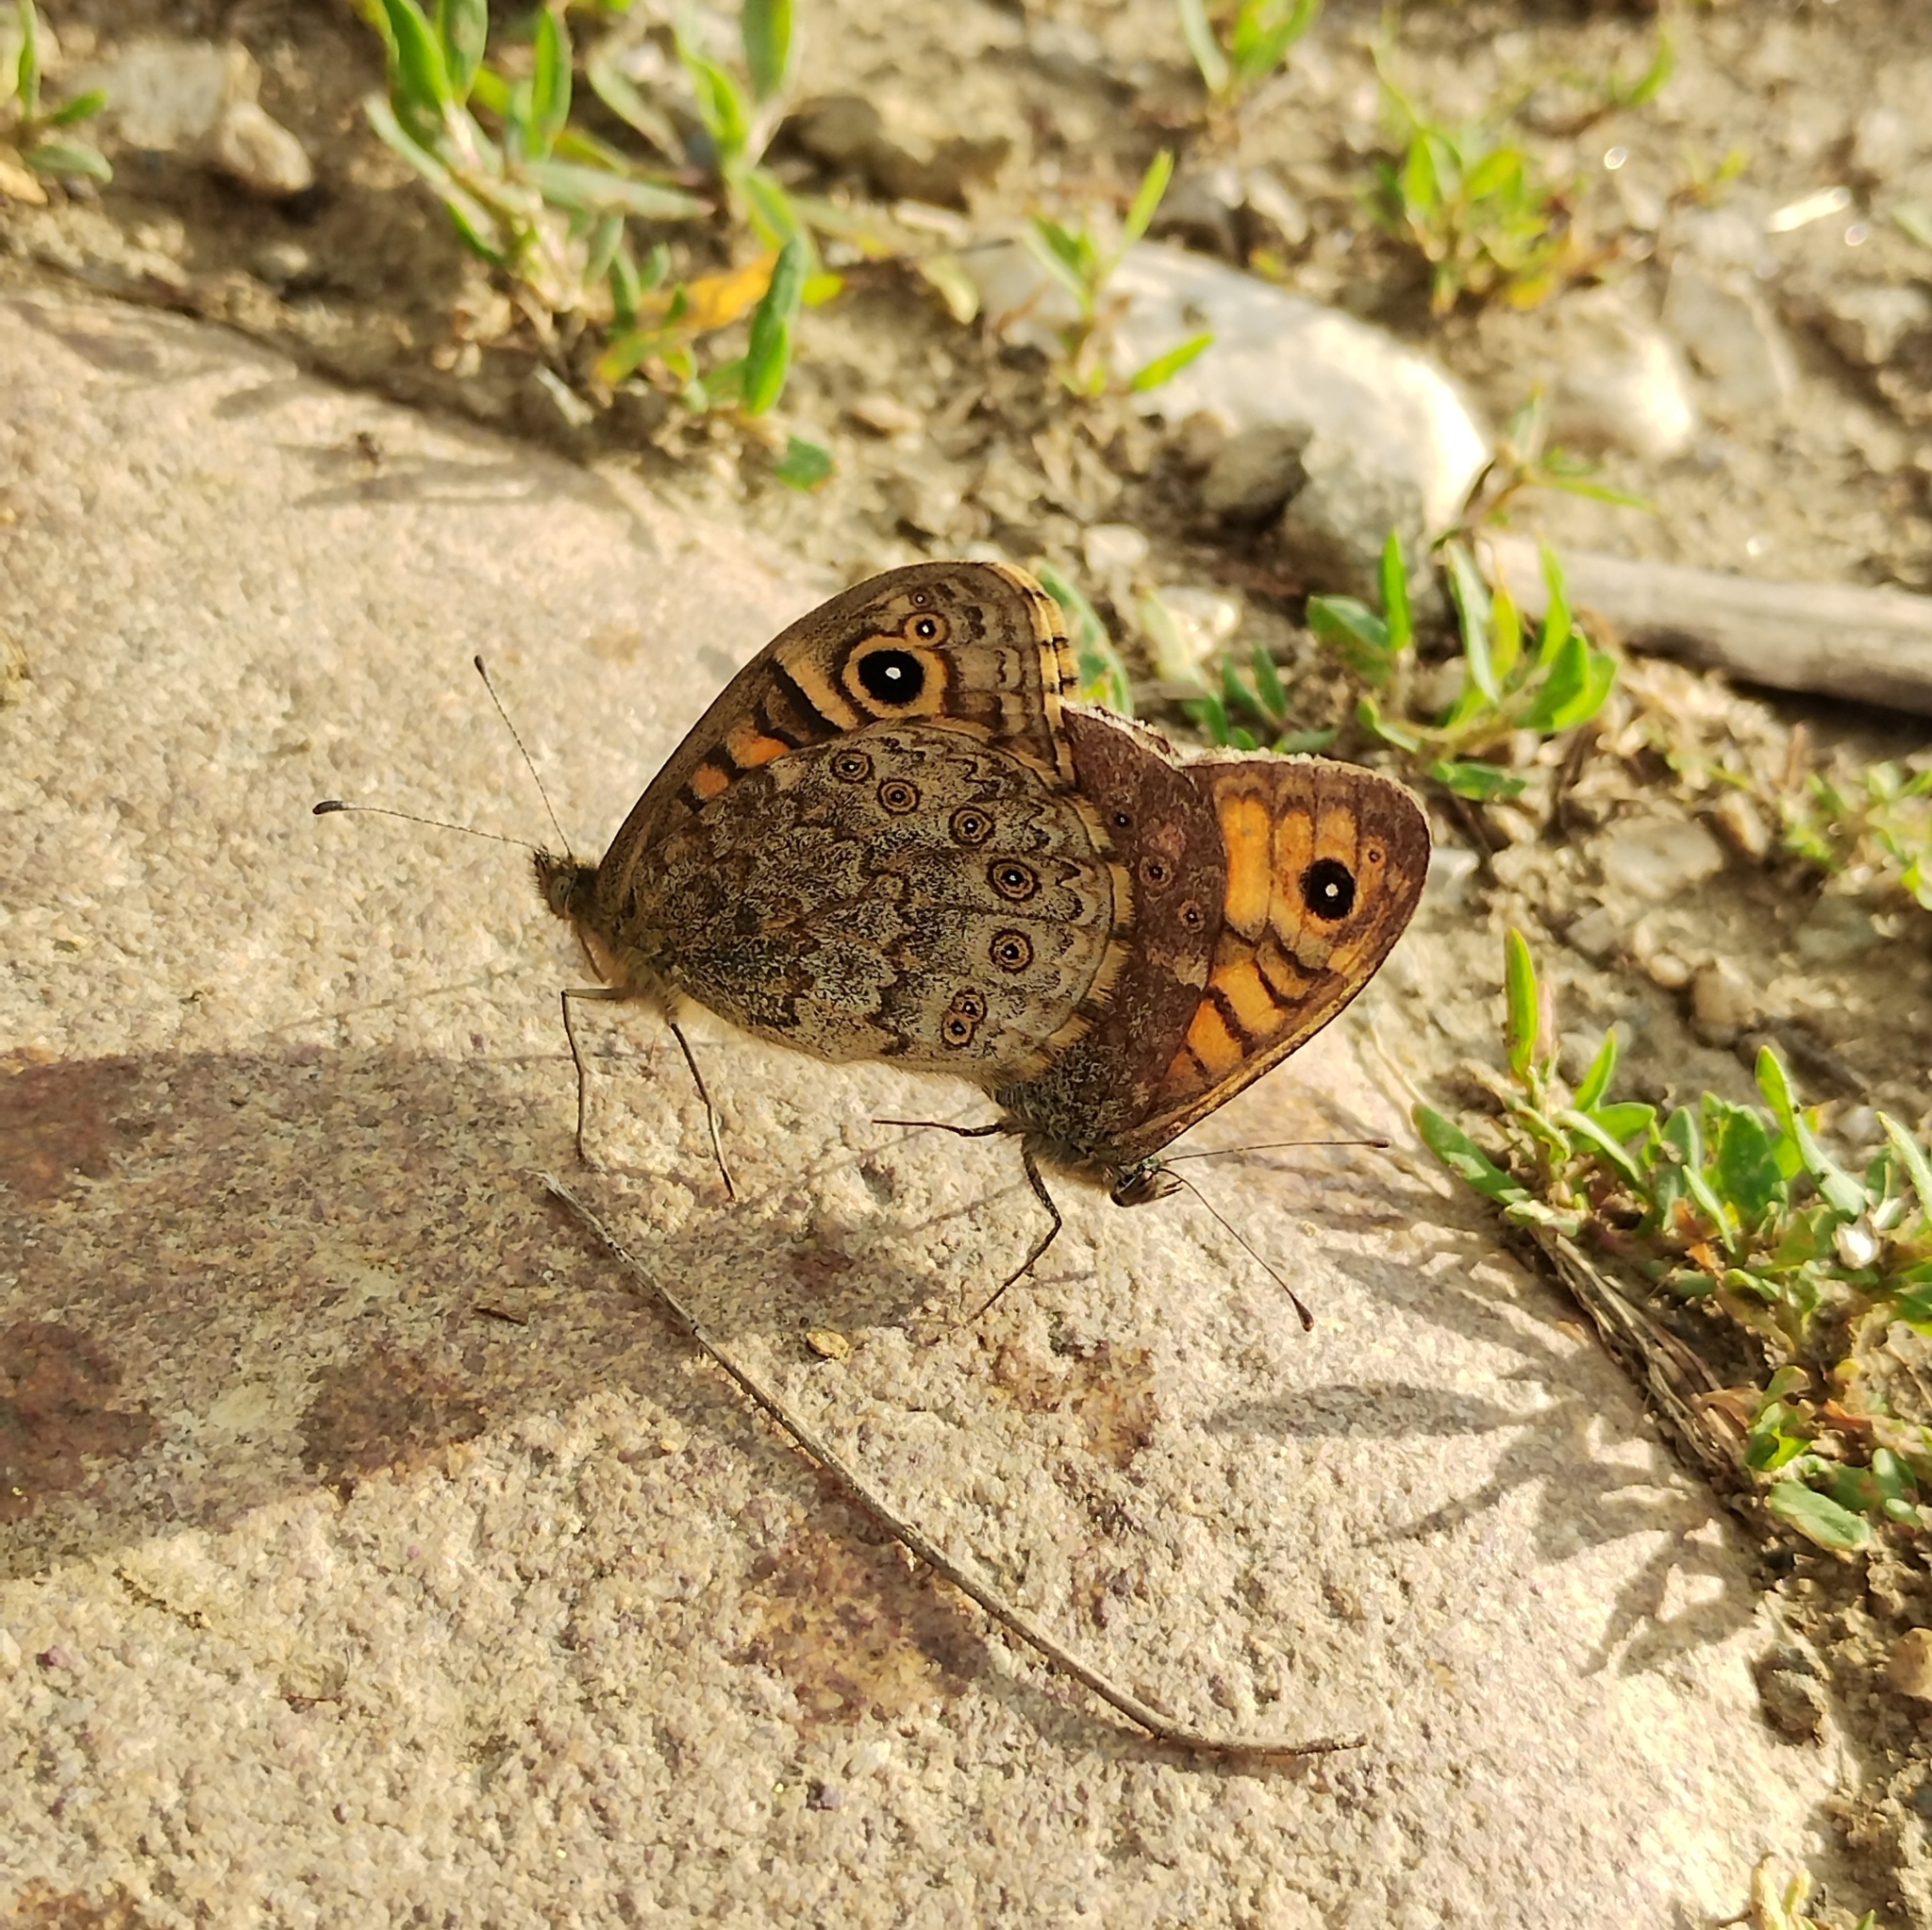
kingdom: Animalia
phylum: Arthropoda
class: Insecta
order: Lepidoptera
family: Nymphalidae
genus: Pararge
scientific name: Pararge Lasiommata megera
